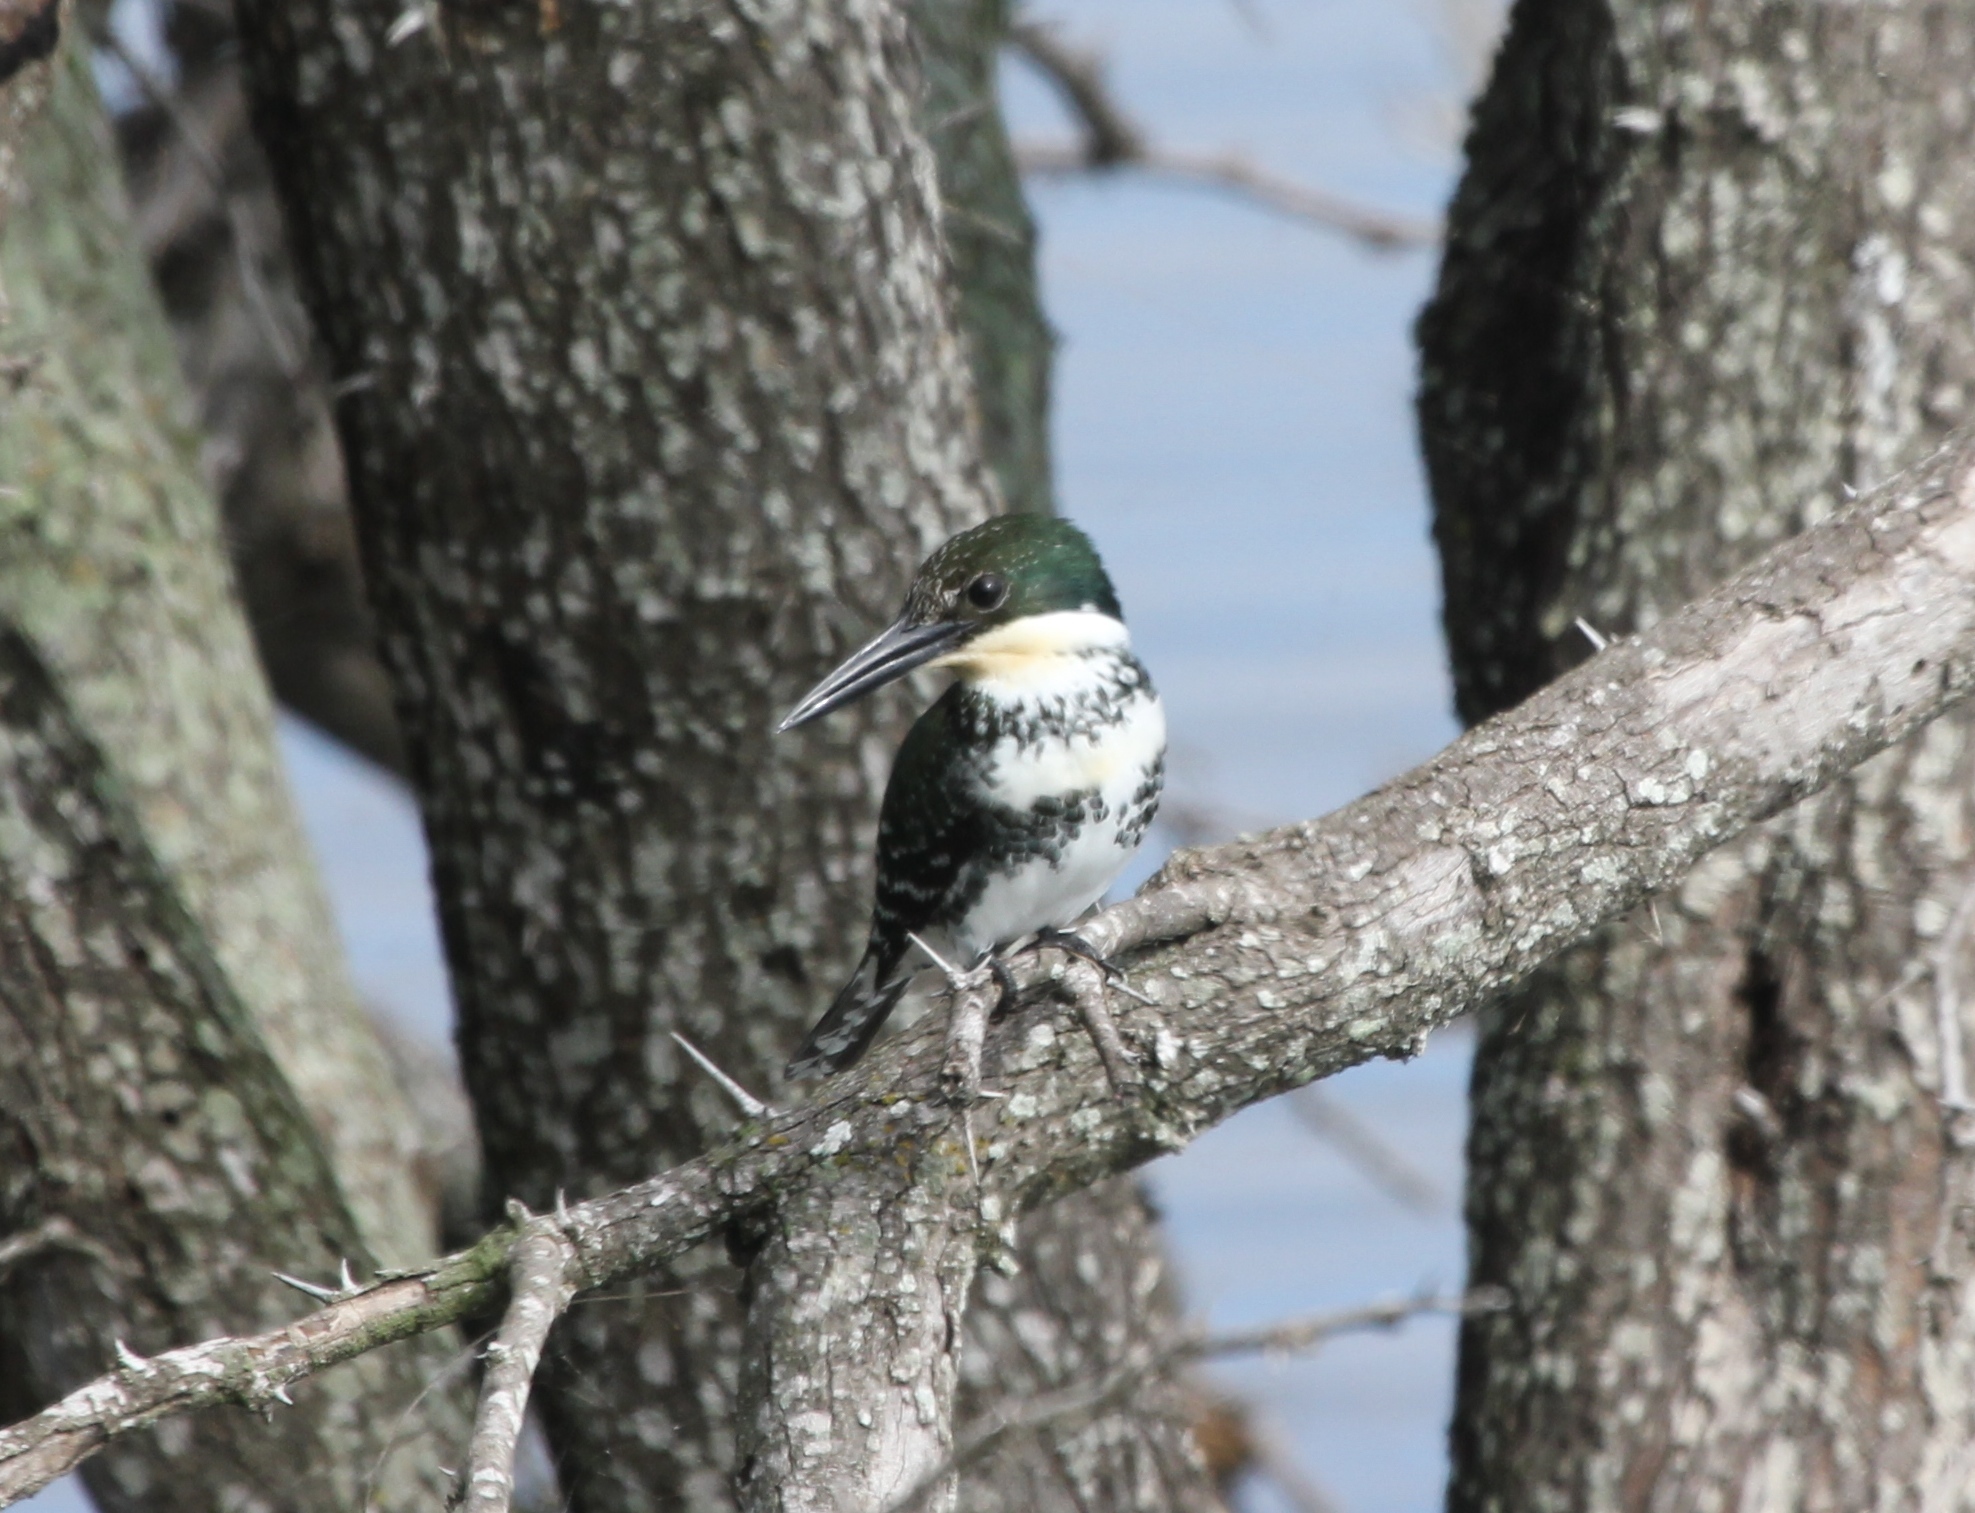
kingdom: Animalia
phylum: Chordata
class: Aves
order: Coraciiformes
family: Alcedinidae
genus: Chloroceryle
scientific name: Chloroceryle americana
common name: Green kingfisher
